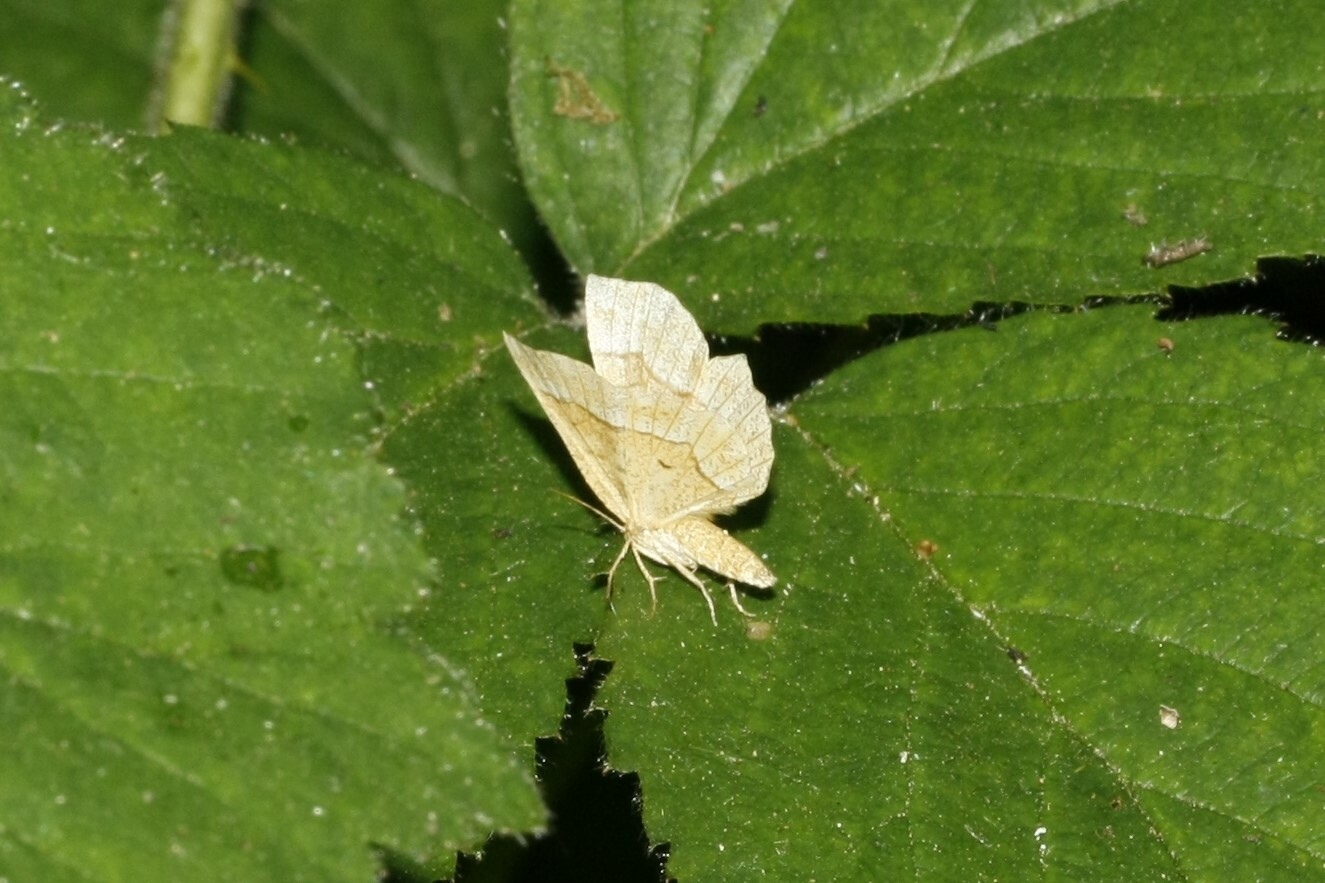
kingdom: Animalia
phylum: Arthropoda
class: Insecta
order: Lepidoptera
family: Geometridae
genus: Cepphis
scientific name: Cepphis advenaria
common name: Little thorn
